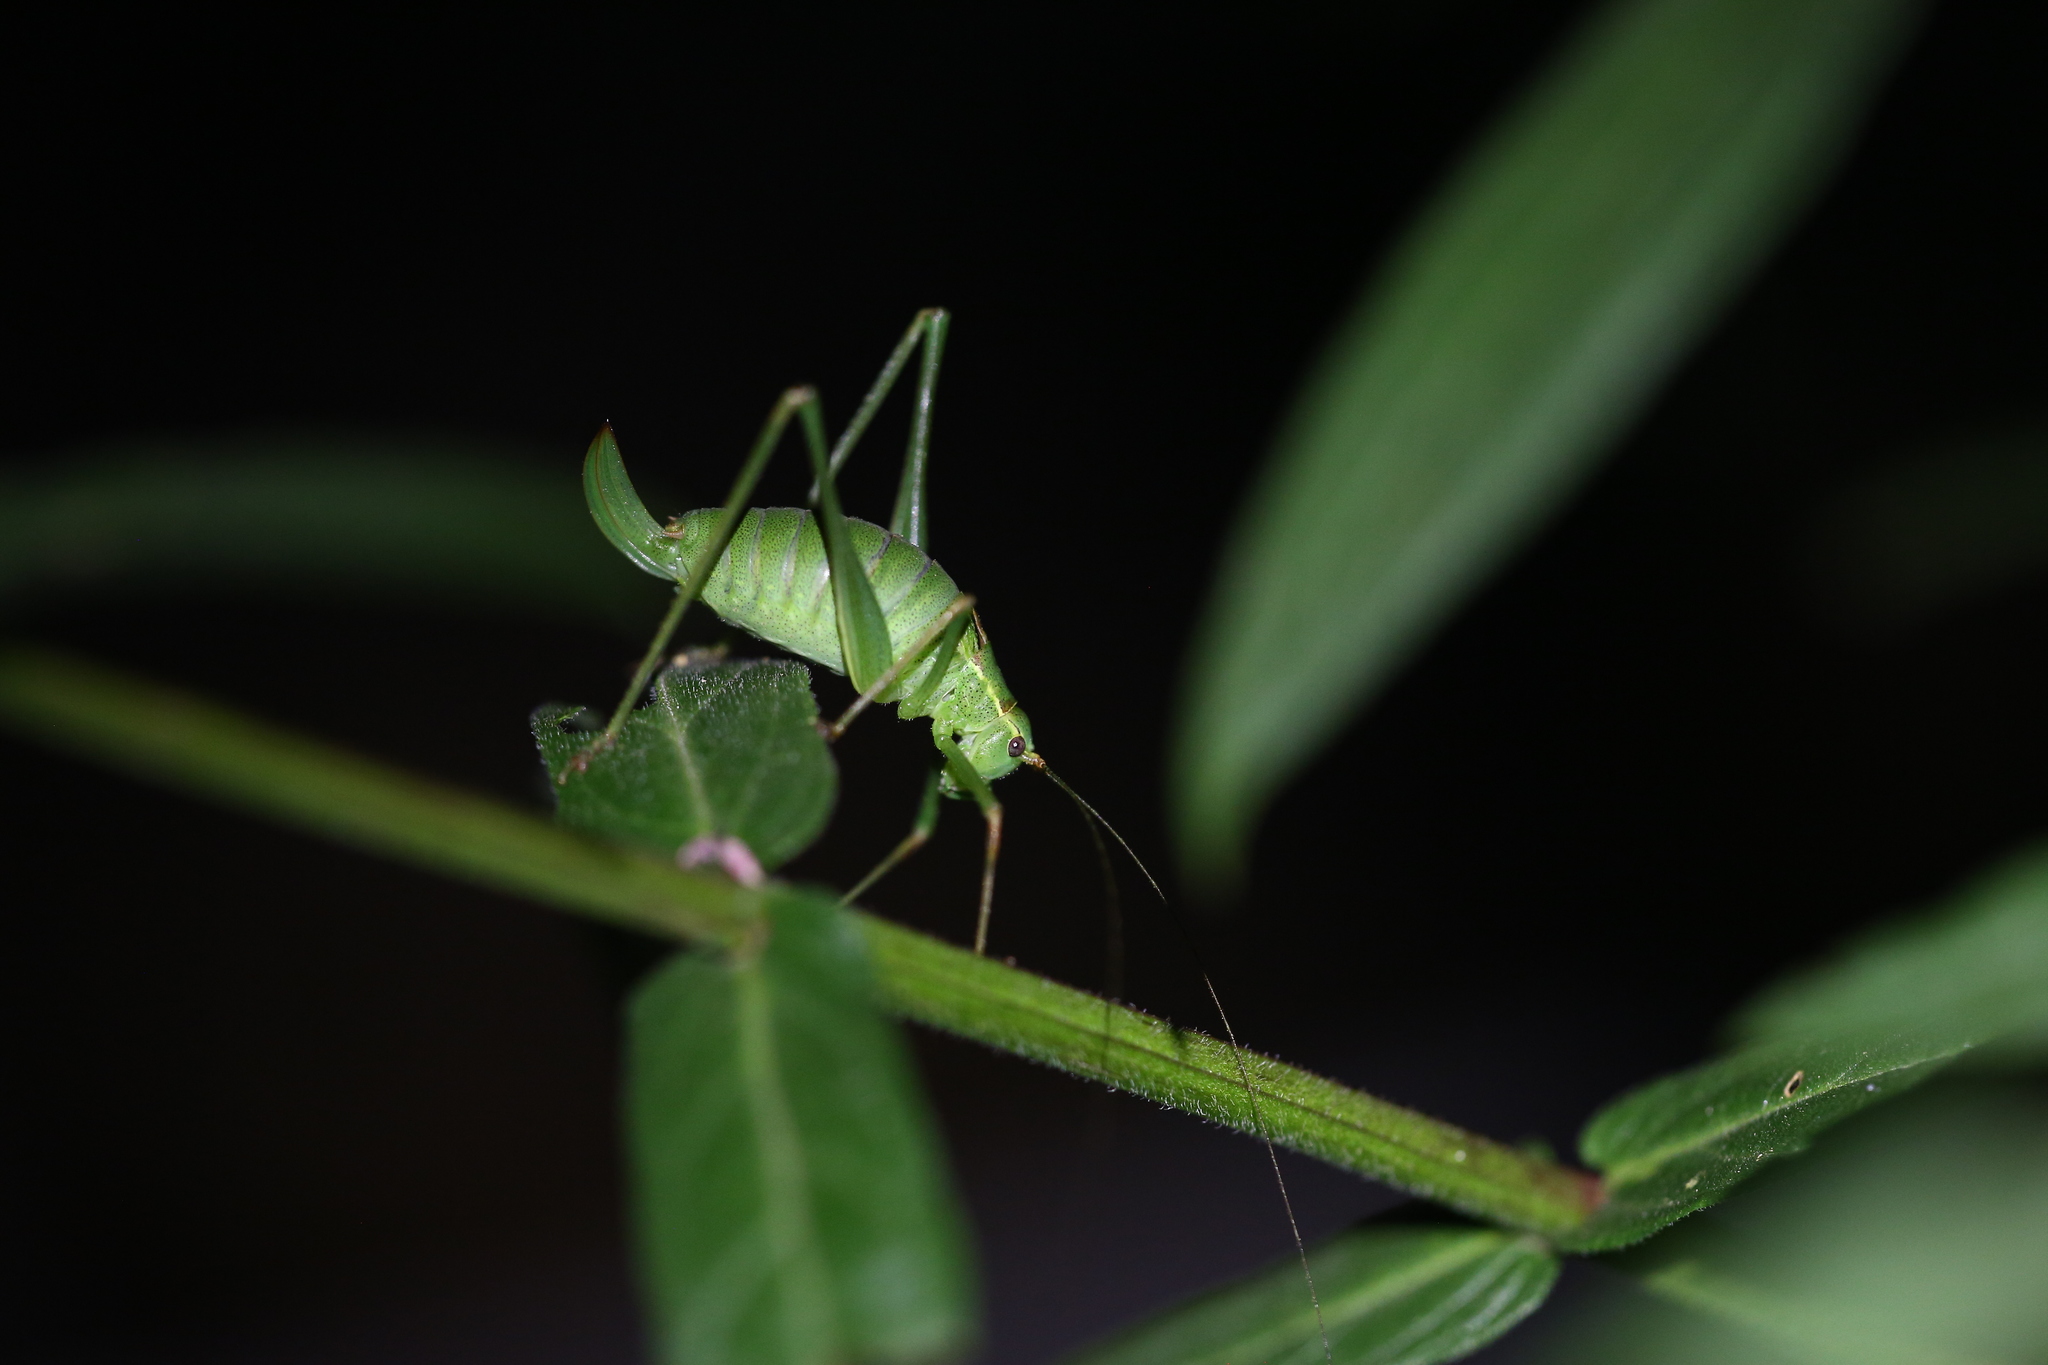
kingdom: Animalia
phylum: Arthropoda
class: Insecta
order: Orthoptera
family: Tettigoniidae
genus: Leptophyes
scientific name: Leptophyes punctatissima
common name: Speckled bush-cricket
